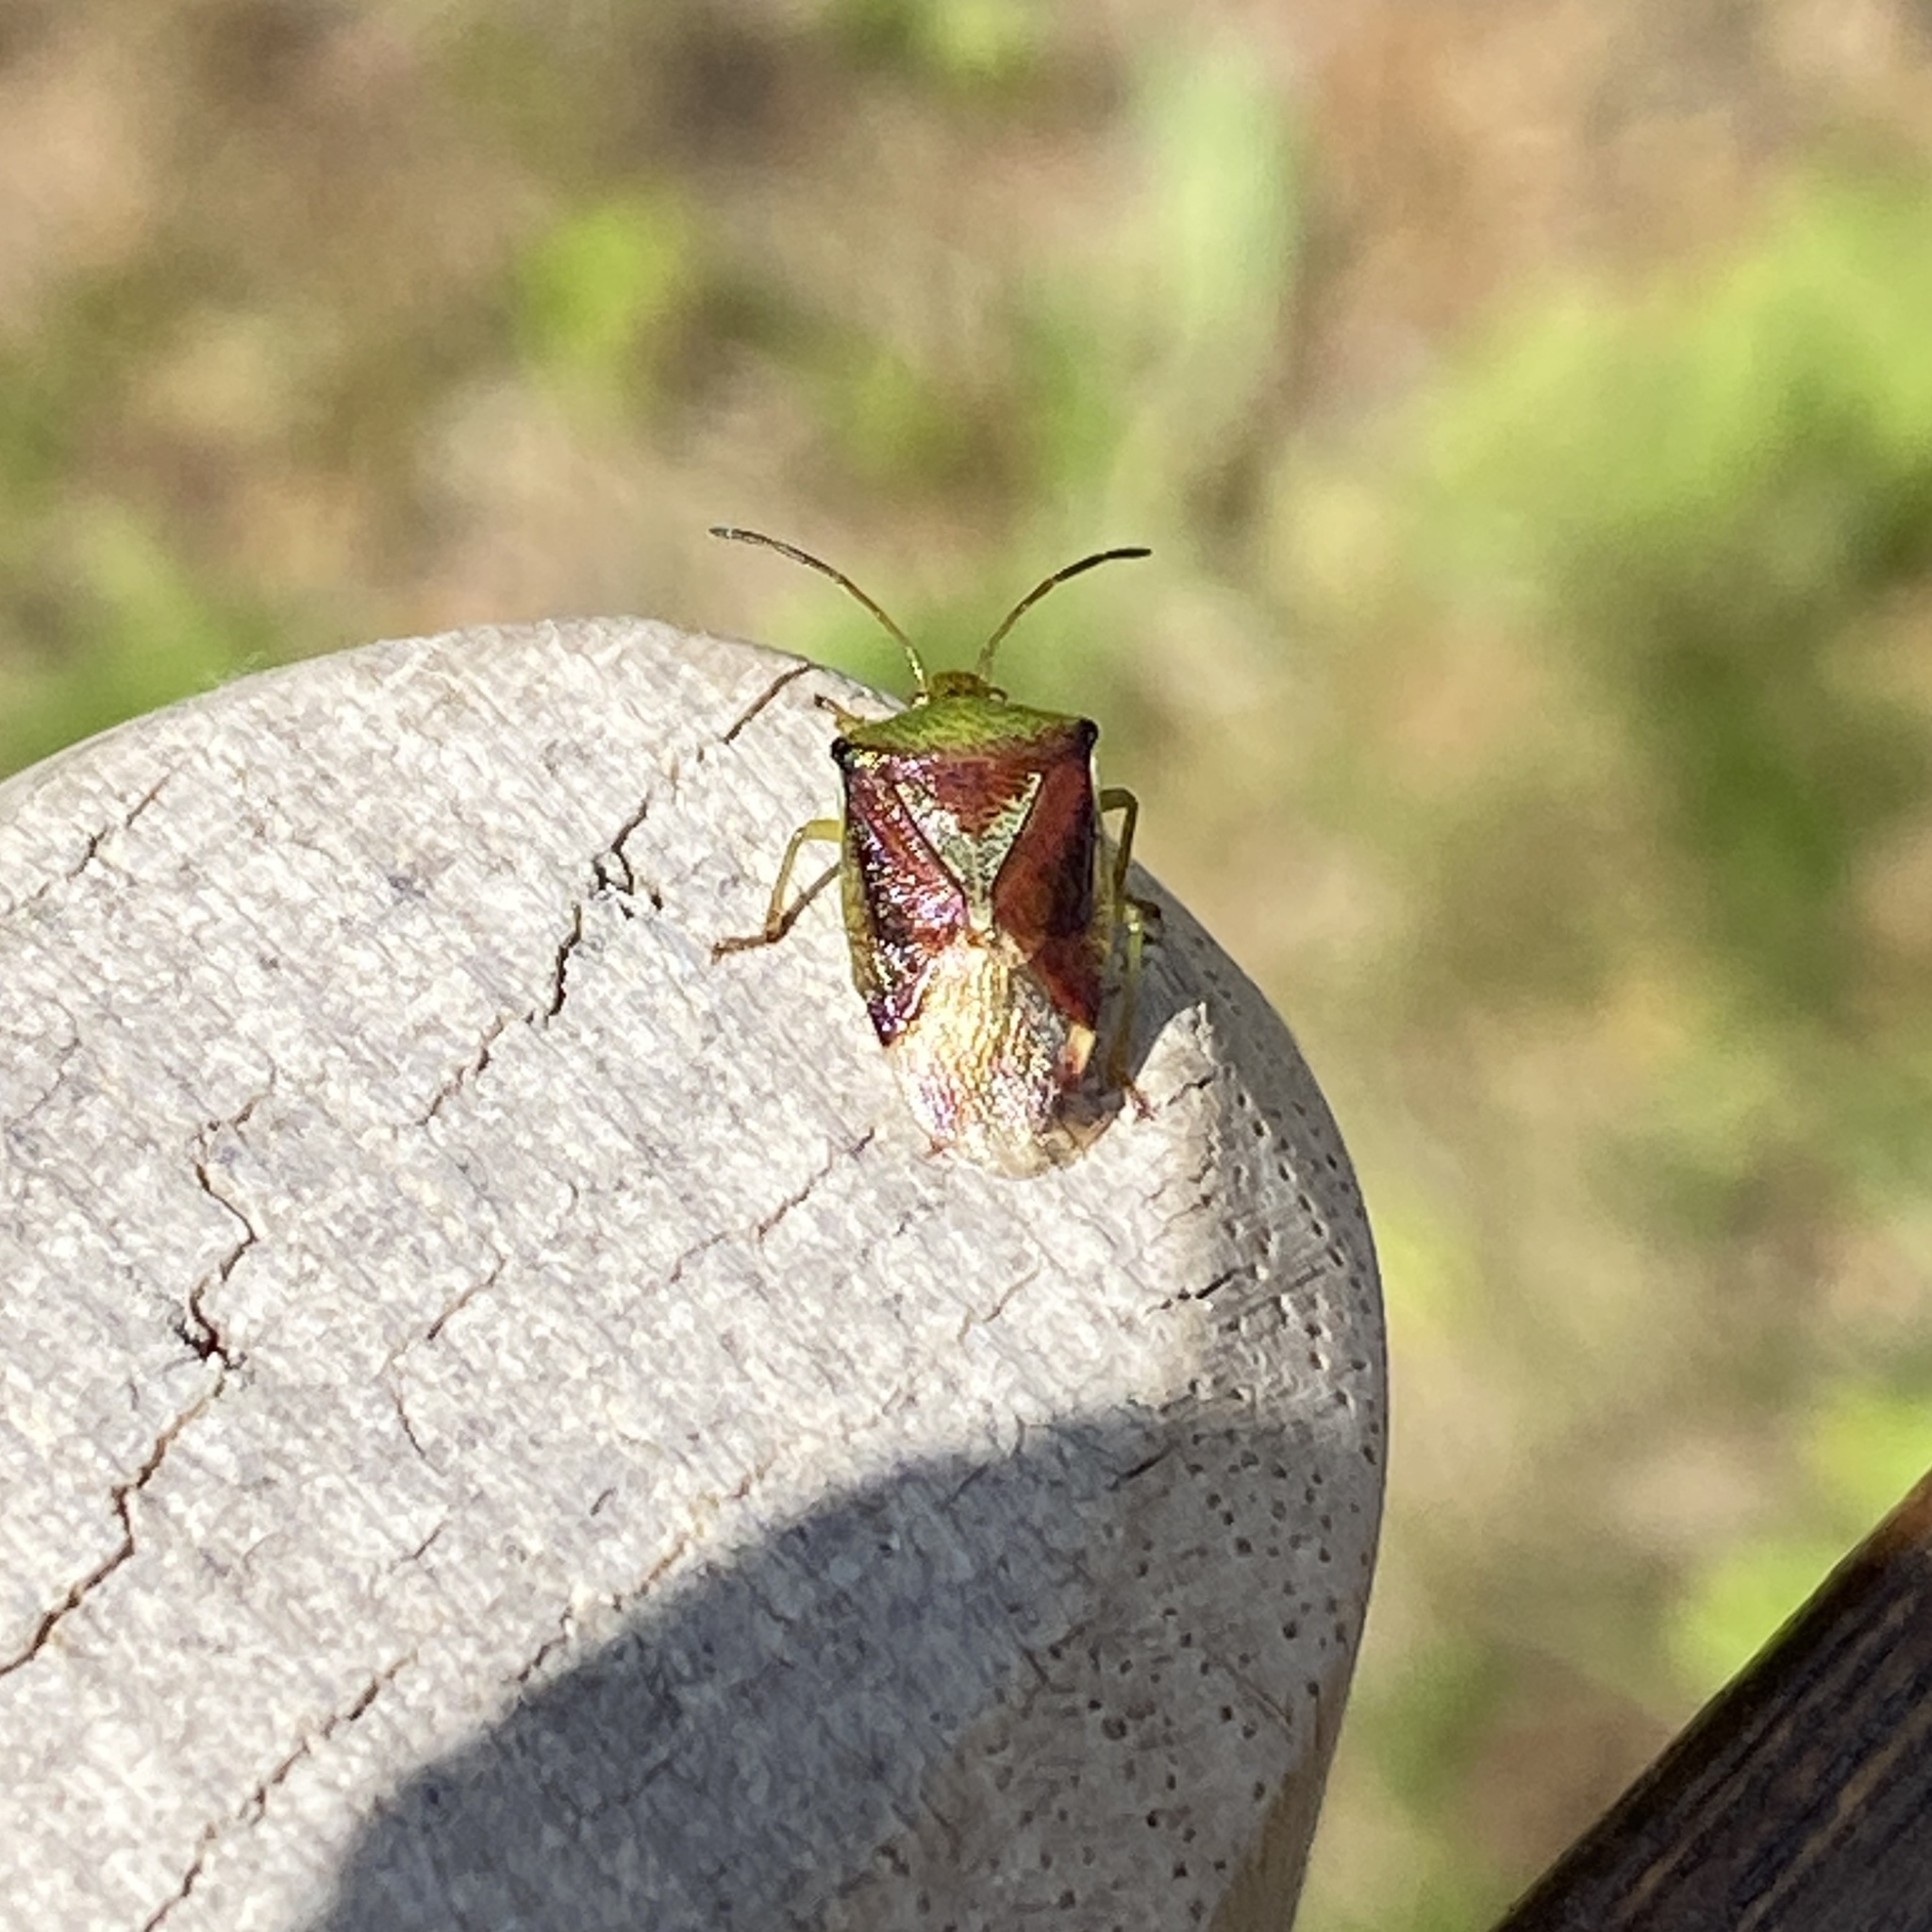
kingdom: Animalia
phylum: Arthropoda
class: Insecta
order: Hemiptera
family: Acanthosomatidae
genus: Elasmostethus
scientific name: Elasmostethus interstinctus
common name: Birch shieldbug
